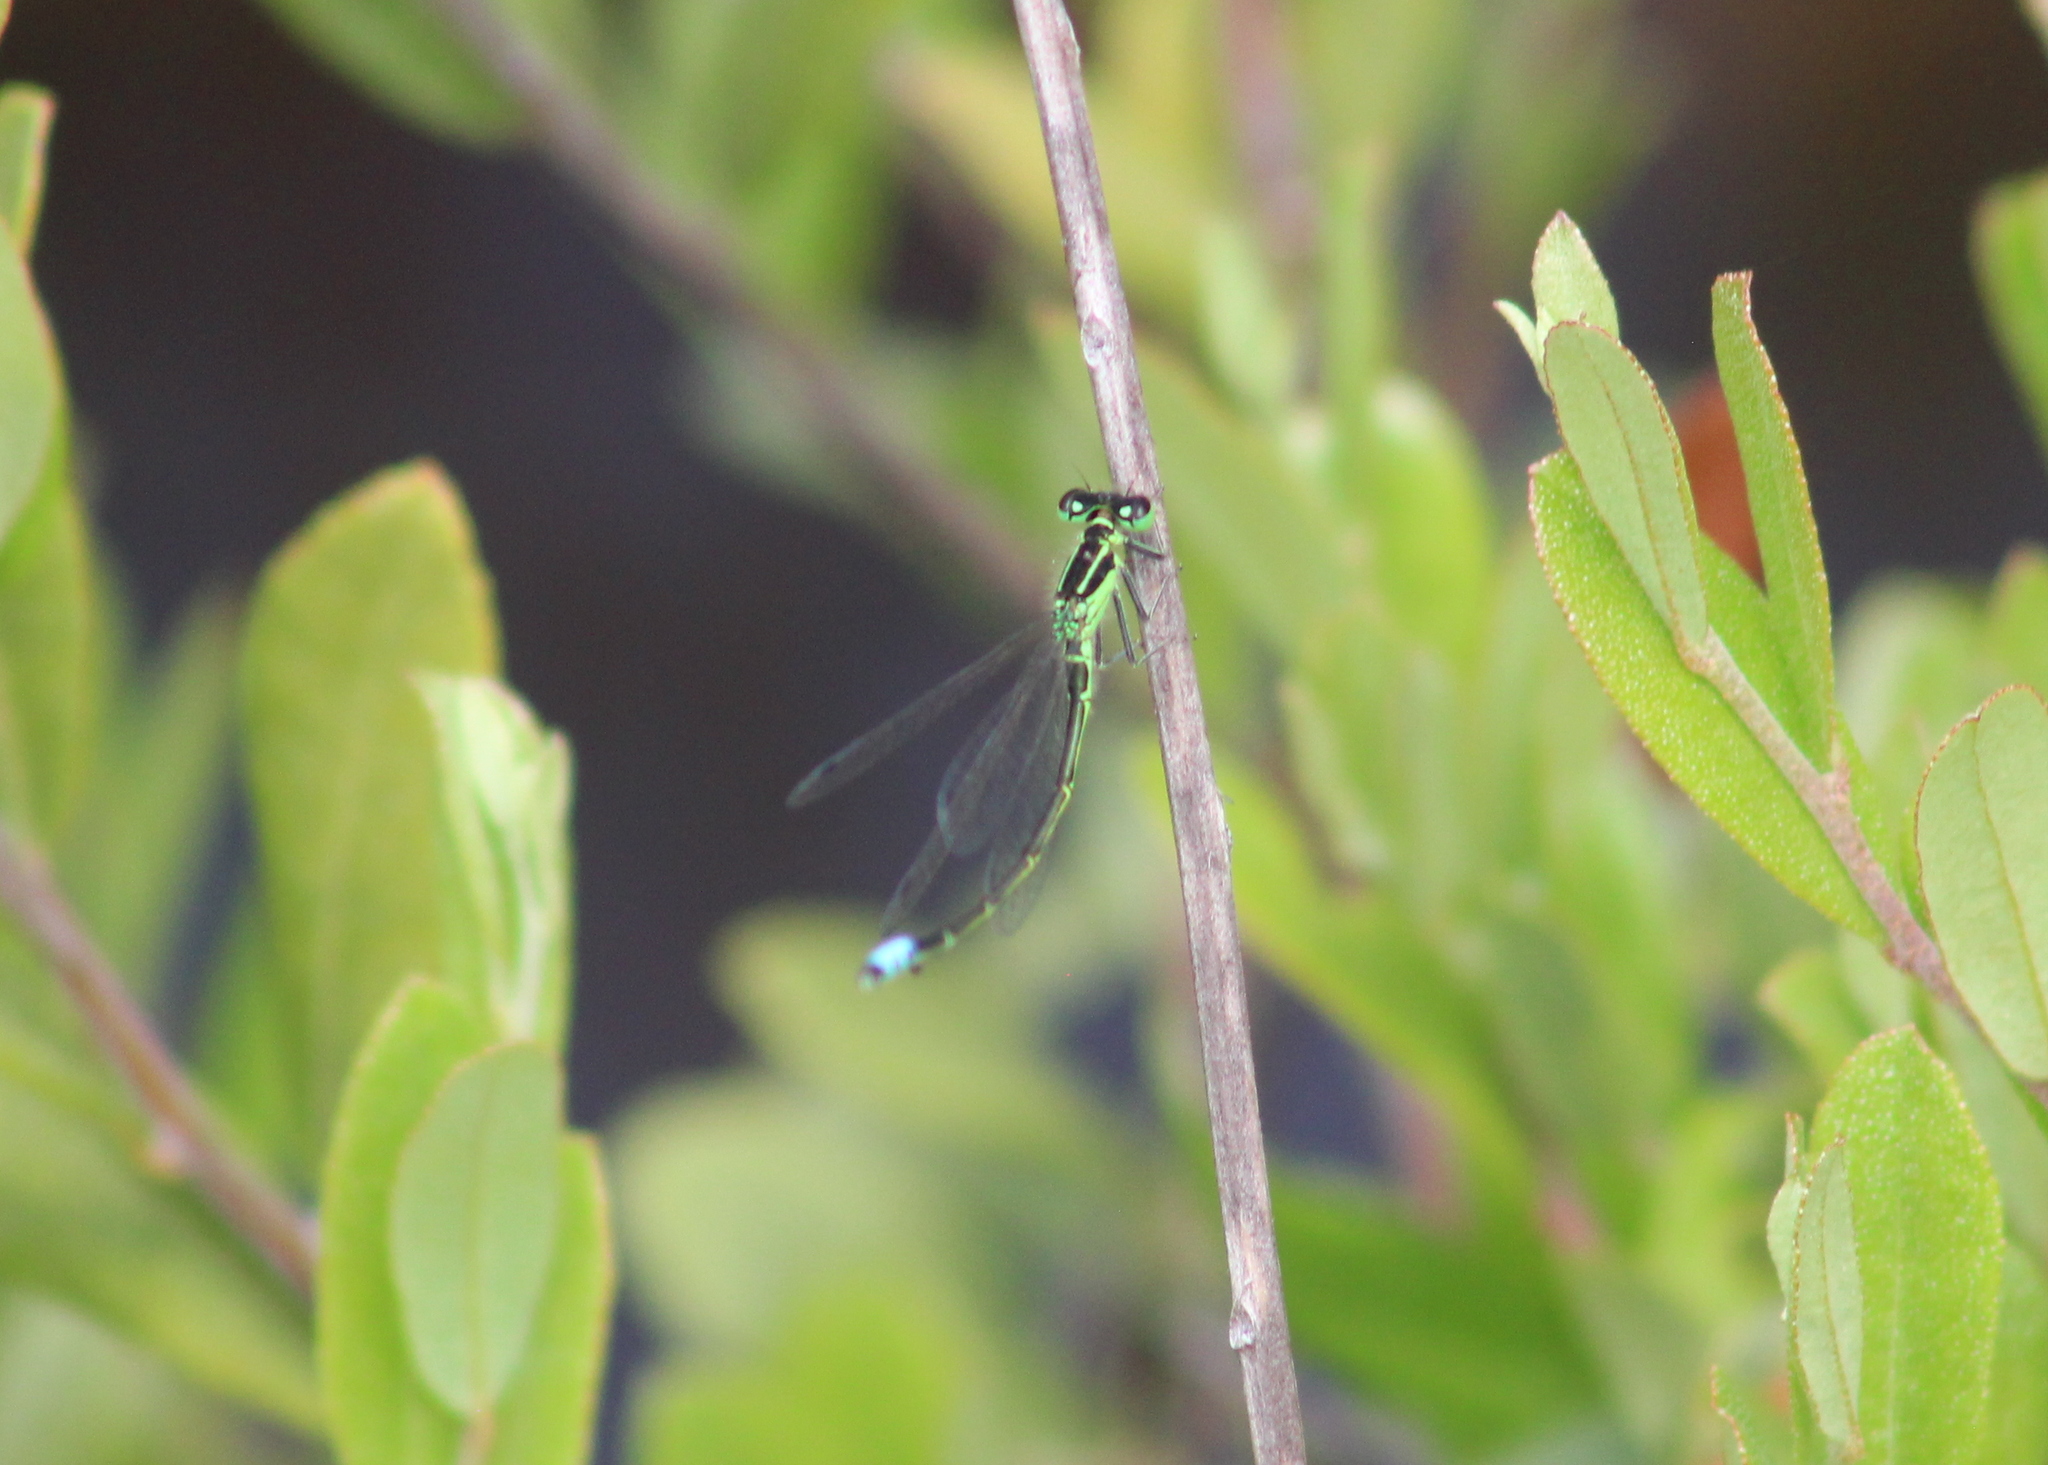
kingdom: Animalia
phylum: Arthropoda
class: Insecta
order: Odonata
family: Coenagrionidae
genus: Ischnura
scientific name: Ischnura verticalis
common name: Eastern forktail
